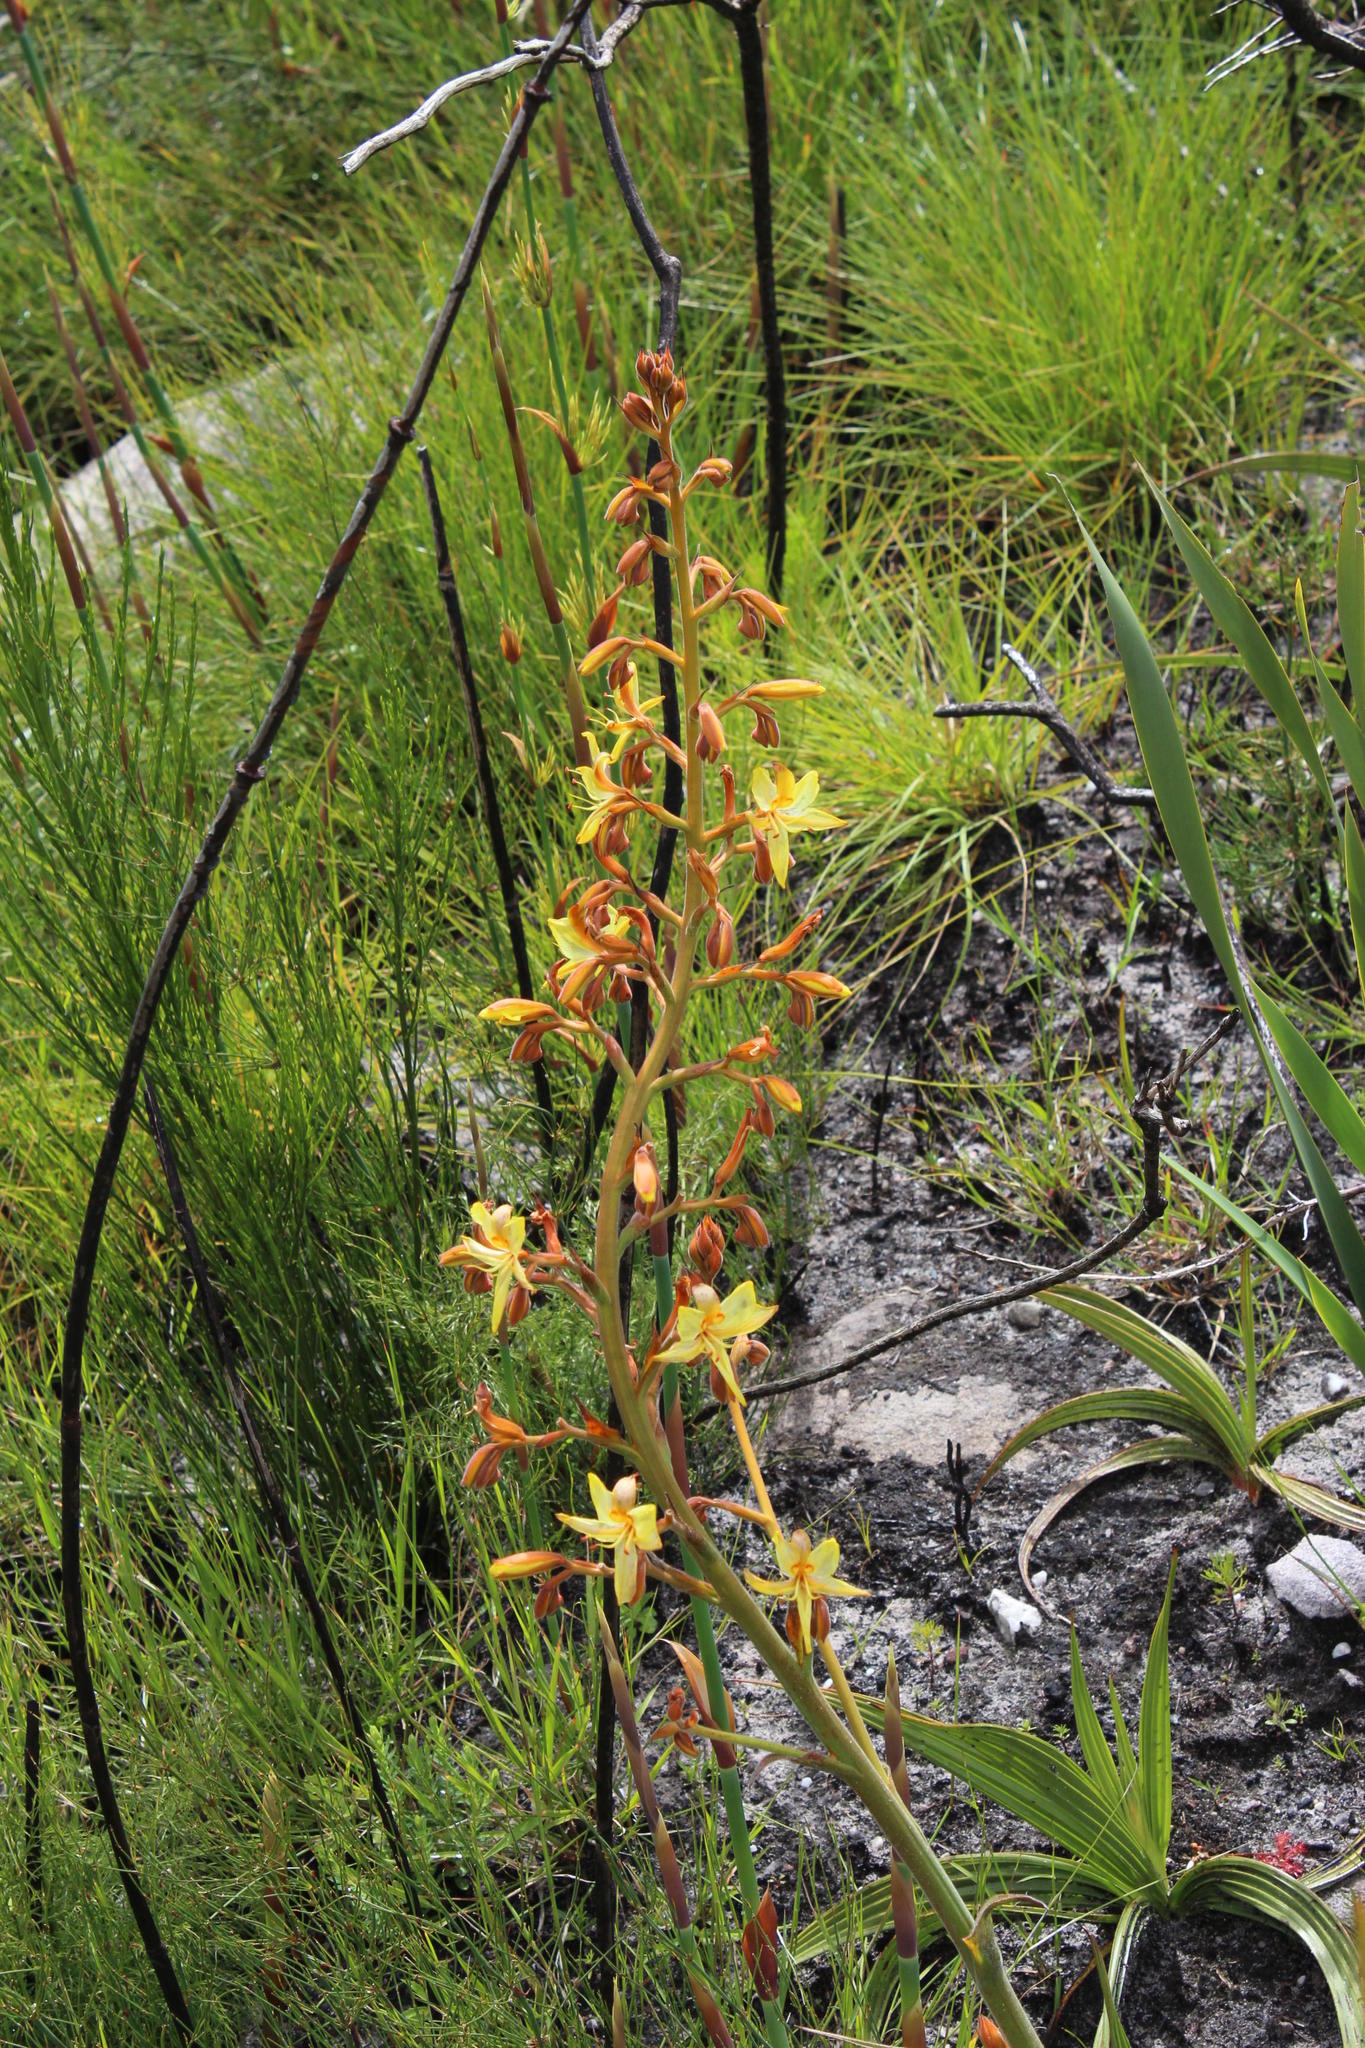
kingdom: Plantae
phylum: Tracheophyta
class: Liliopsida
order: Commelinales
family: Haemodoraceae
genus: Wachendorfia
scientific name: Wachendorfia paniculata
